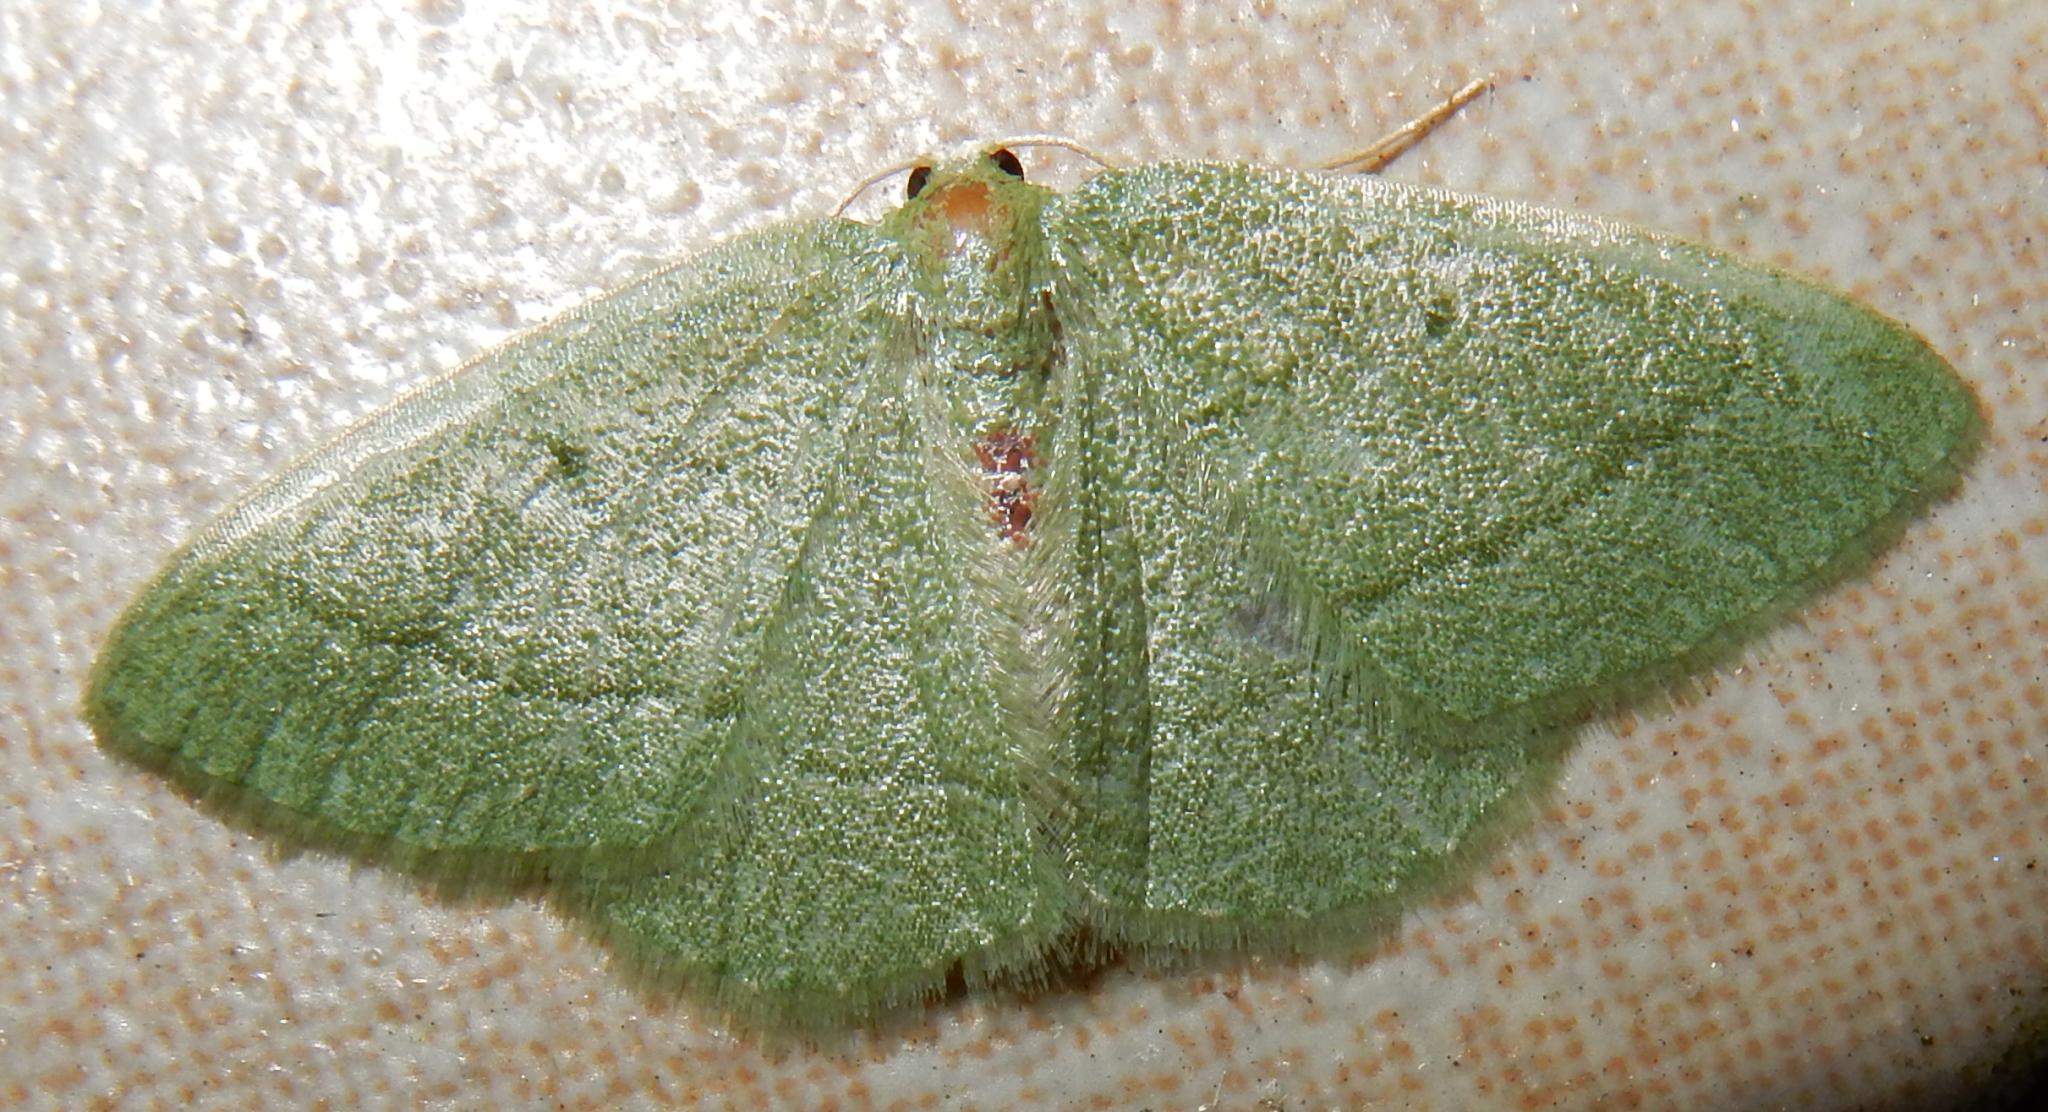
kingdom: Animalia
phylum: Arthropoda
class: Insecta
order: Lepidoptera
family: Geometridae
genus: Chlorissa
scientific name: Chlorissa dorsicristata
